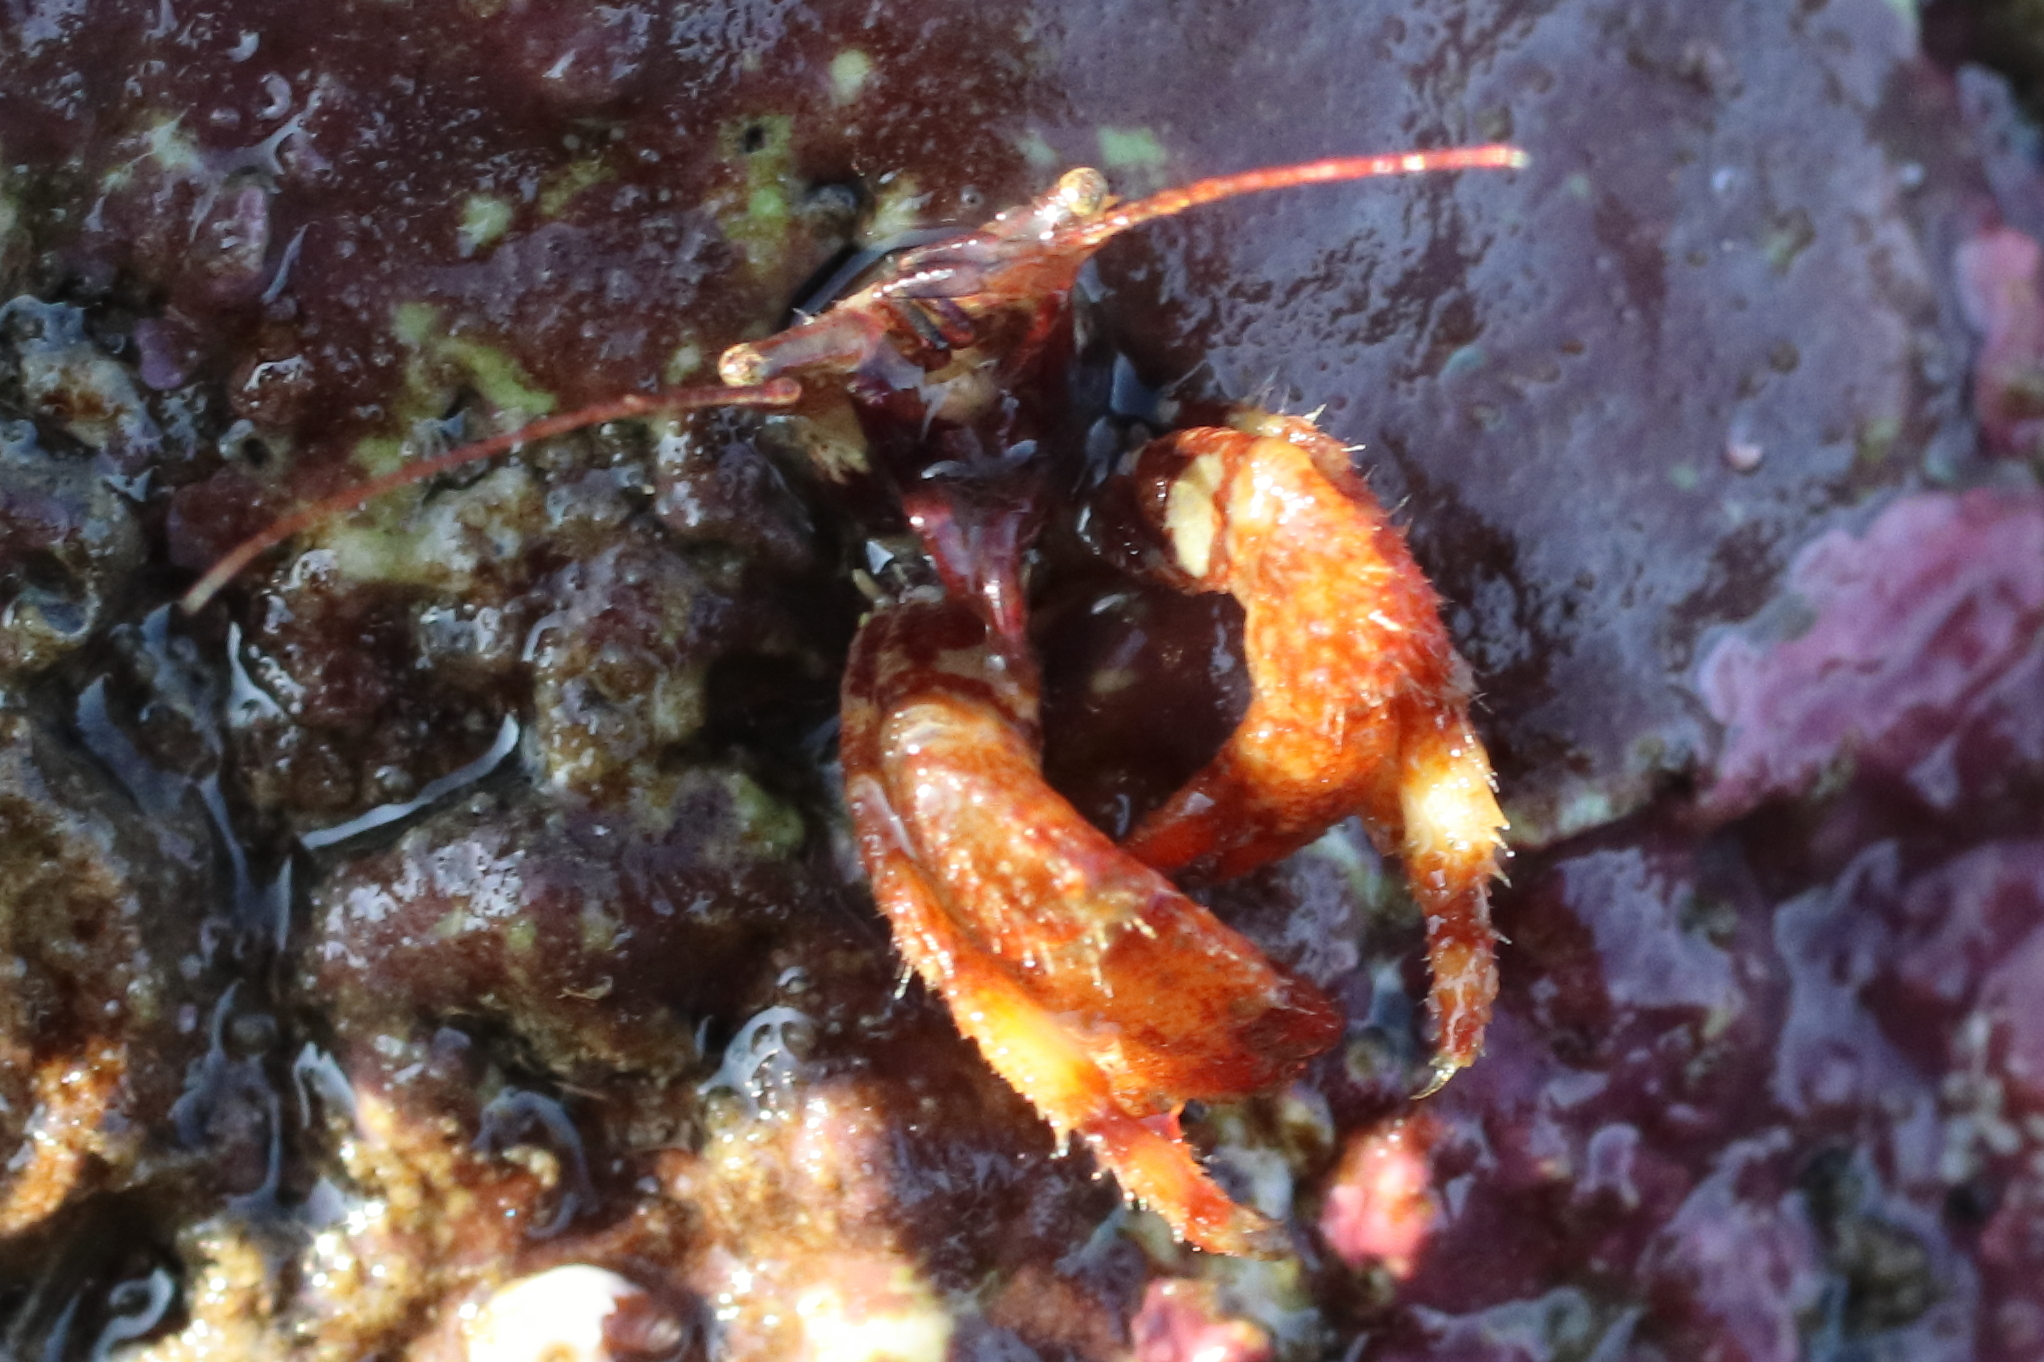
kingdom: Animalia
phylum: Arthropoda
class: Malacostraca
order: Decapoda
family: Paguridae
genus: Discorsopagurus
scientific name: Discorsopagurus schmitti
